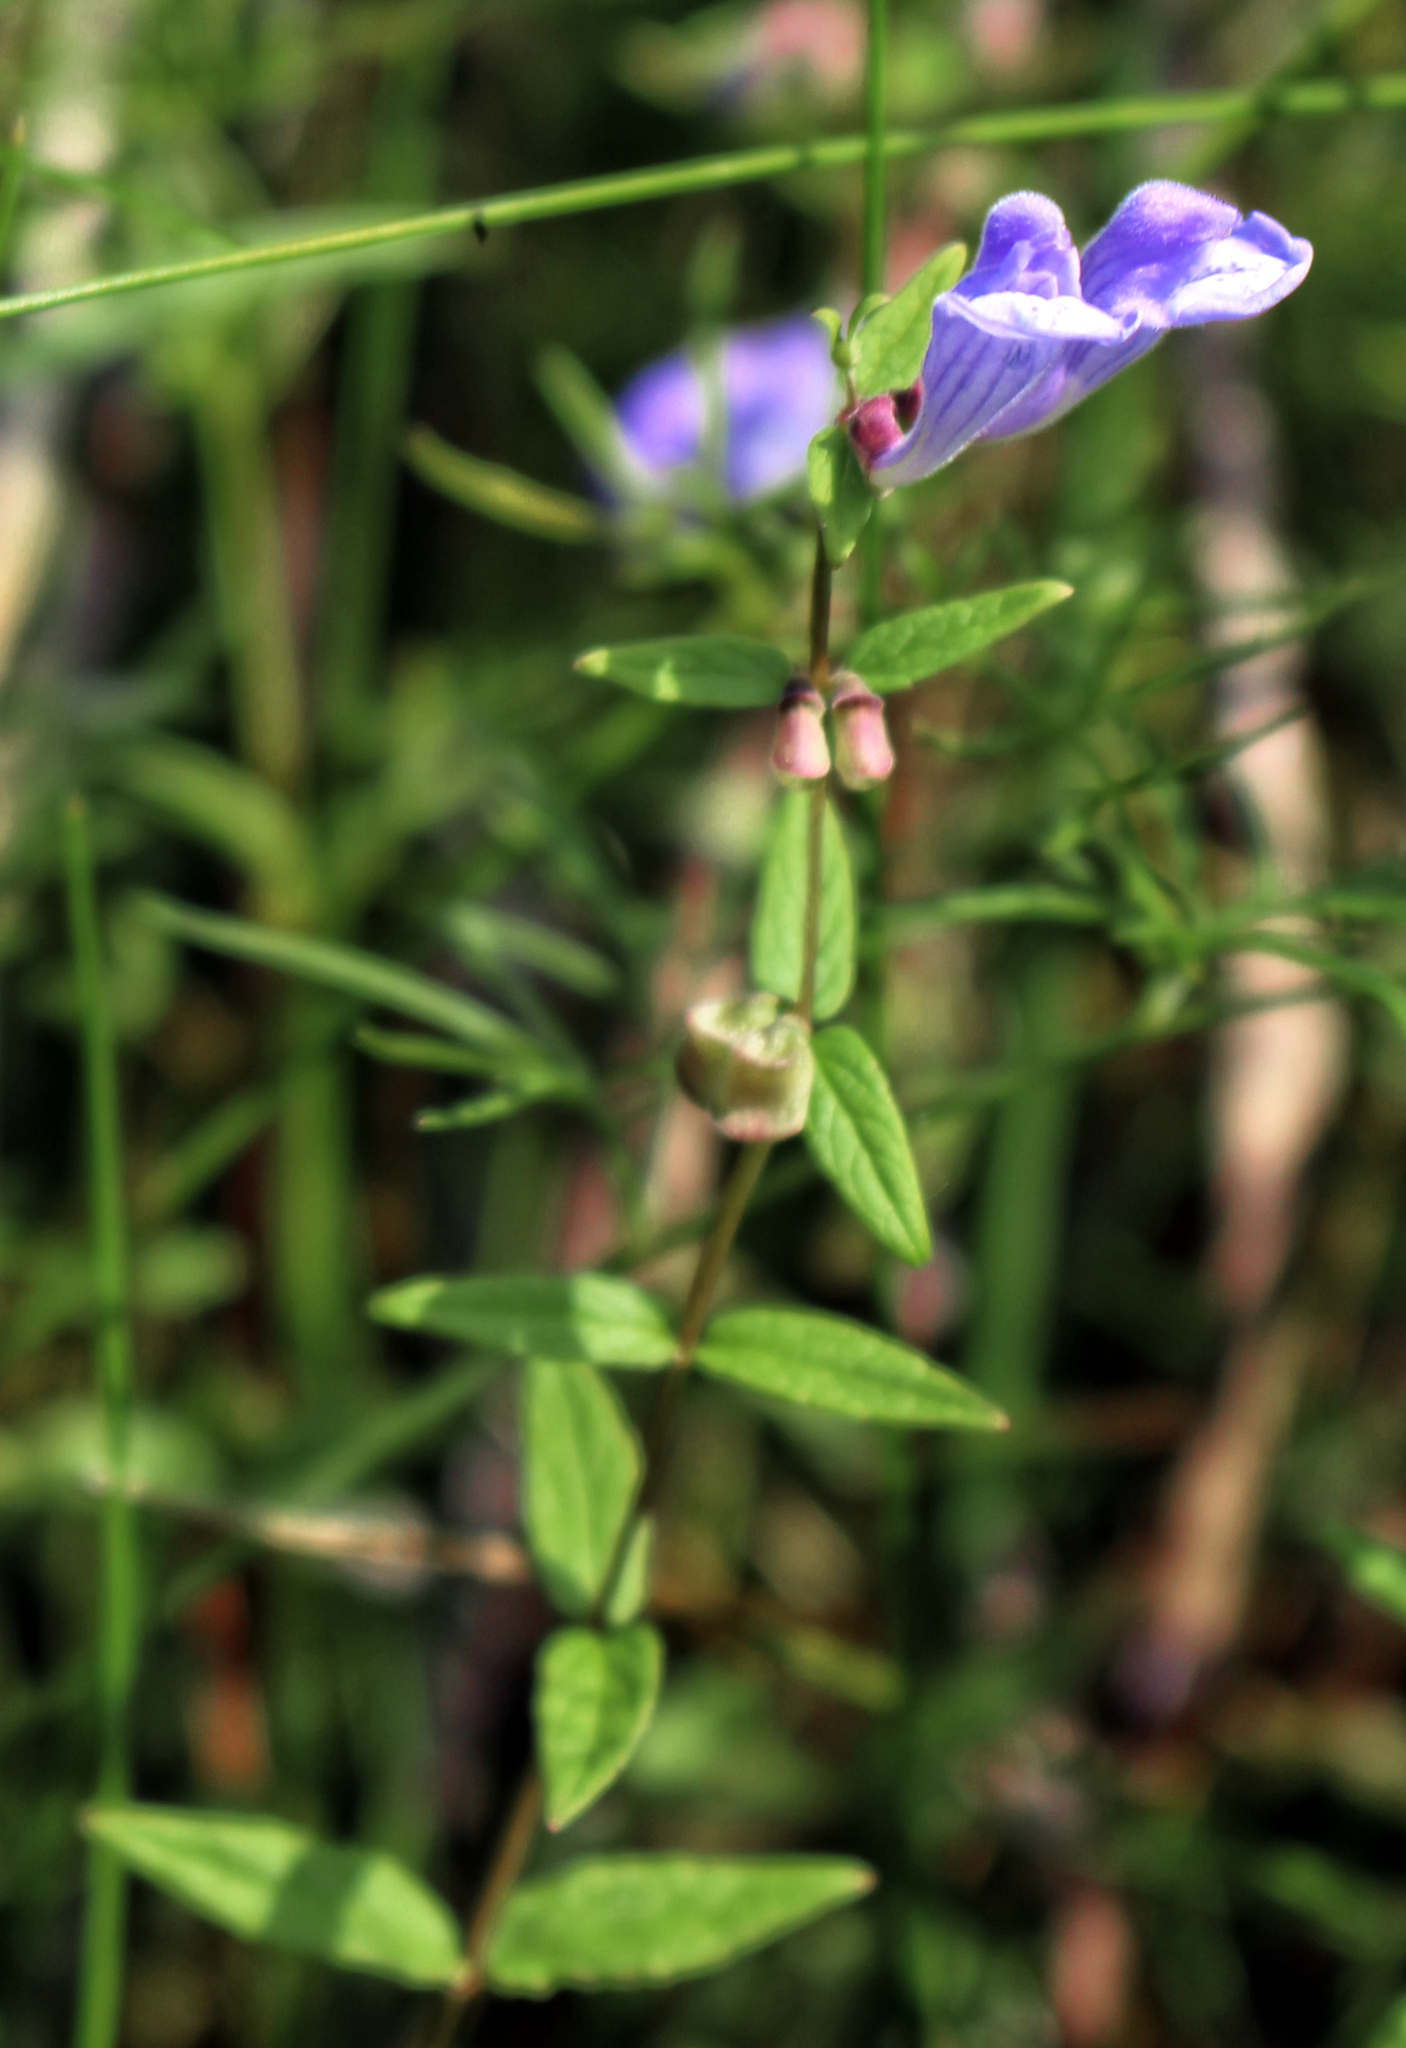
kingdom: Plantae
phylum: Tracheophyta
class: Magnoliopsida
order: Lamiales
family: Lamiaceae
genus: Scutellaria
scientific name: Scutellaria galericulata
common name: Skullcap
